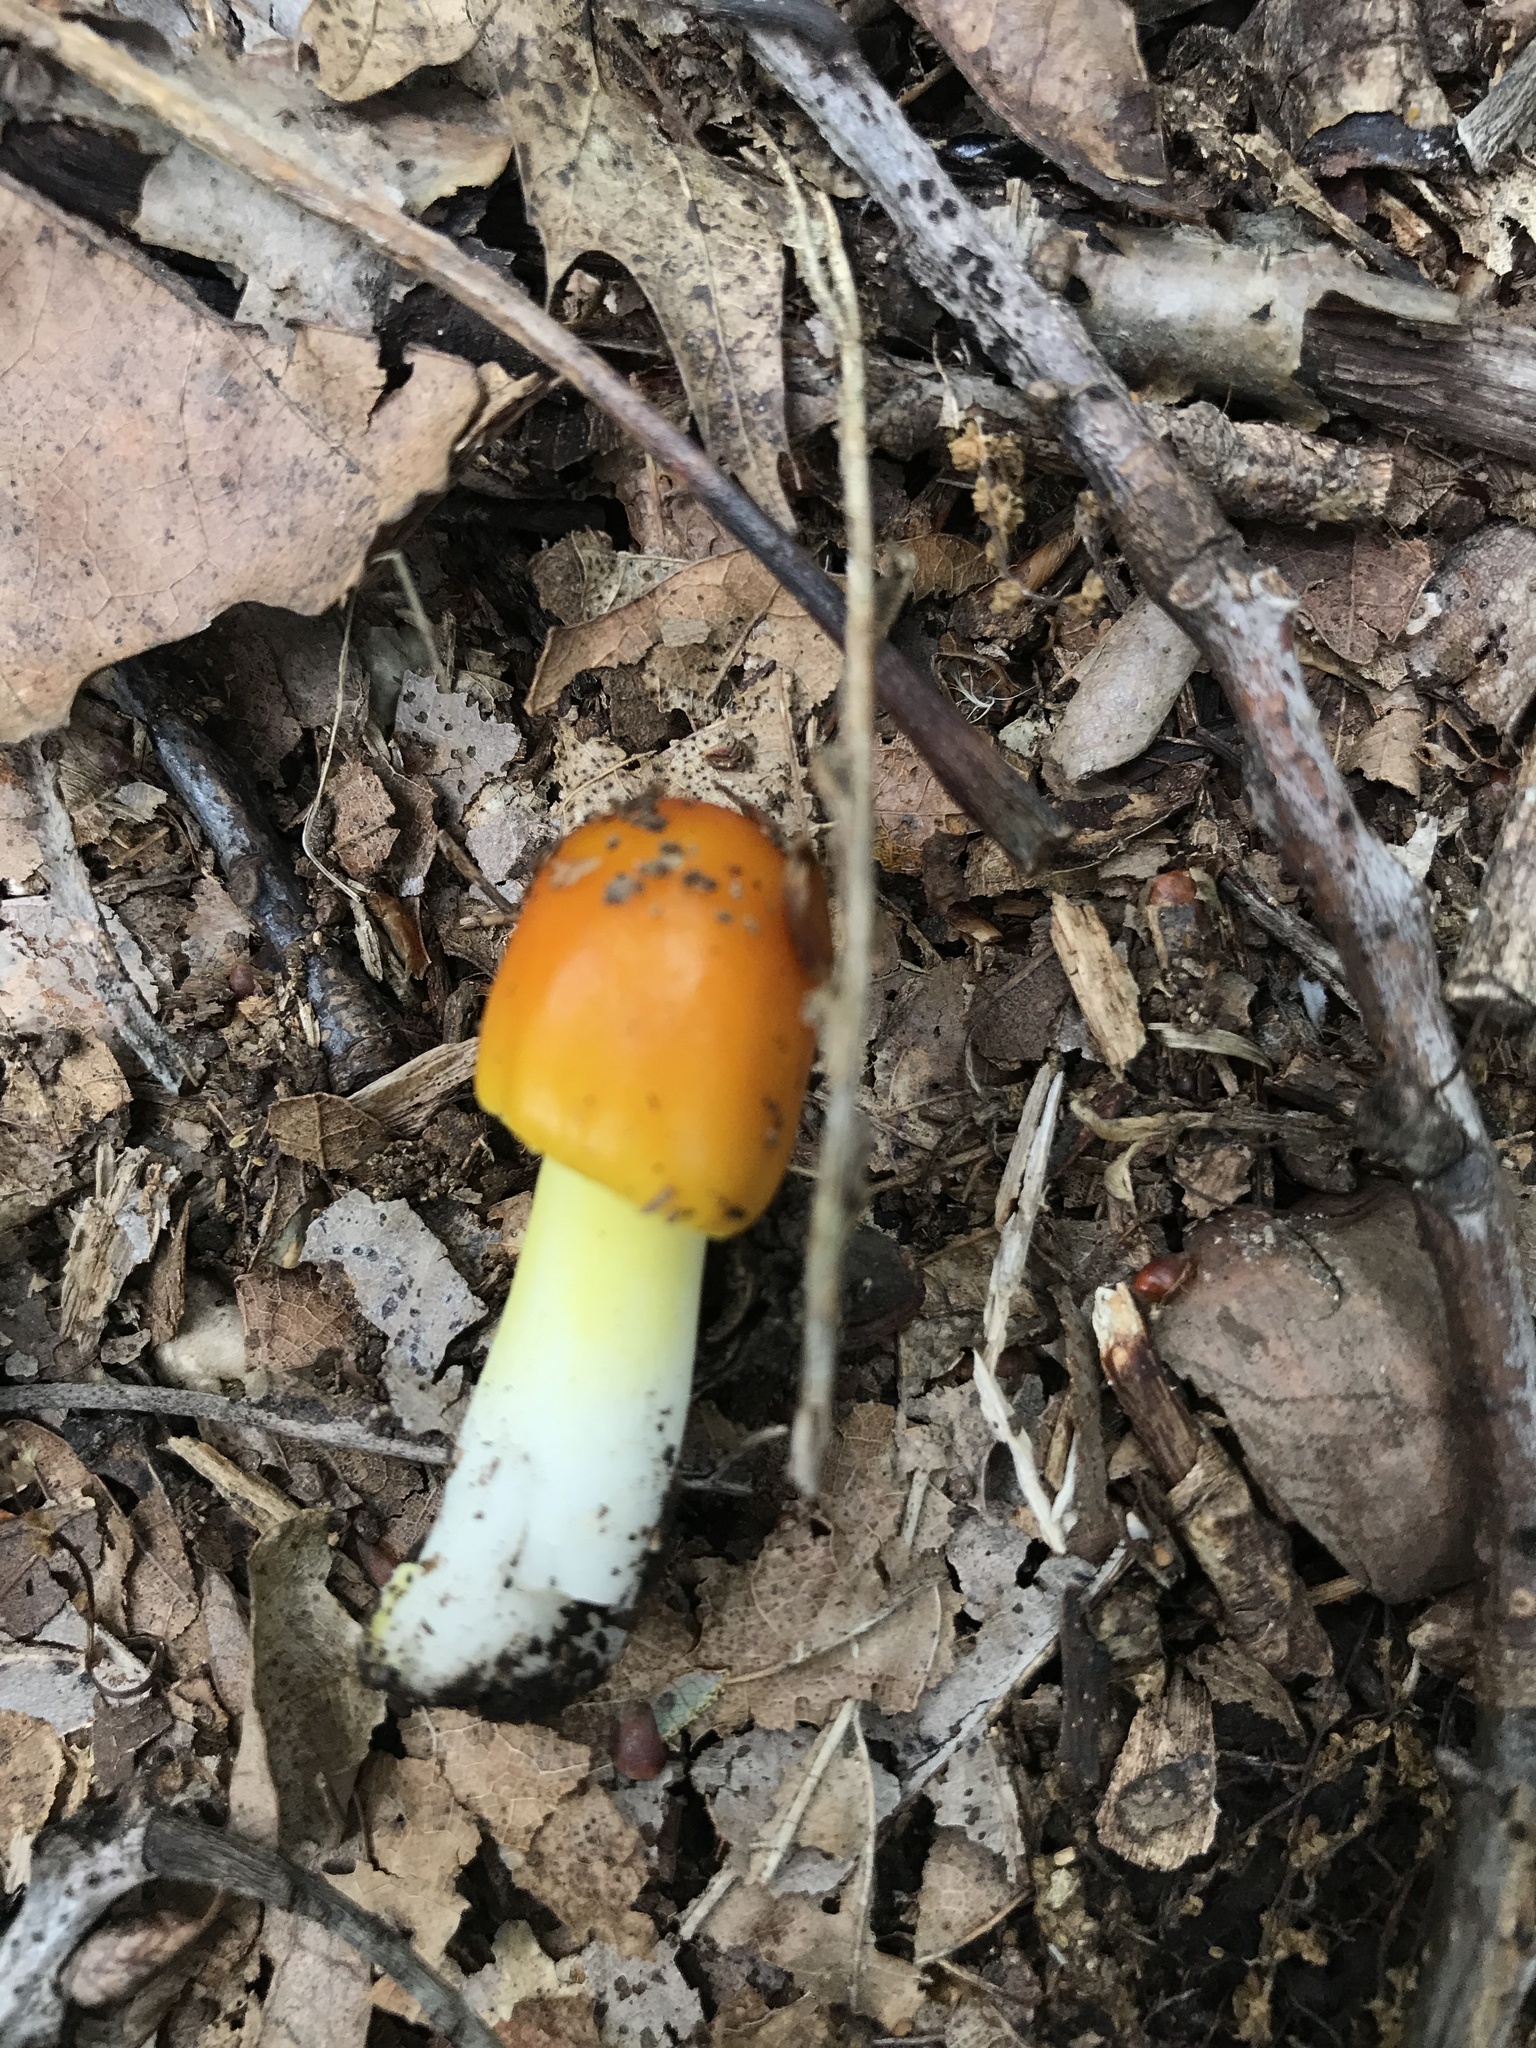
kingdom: Fungi
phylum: Basidiomycota
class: Agaricomycetes
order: Agaricales
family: Amanitaceae
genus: Amanita
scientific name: Amanita flavoconia
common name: Yellow patches
